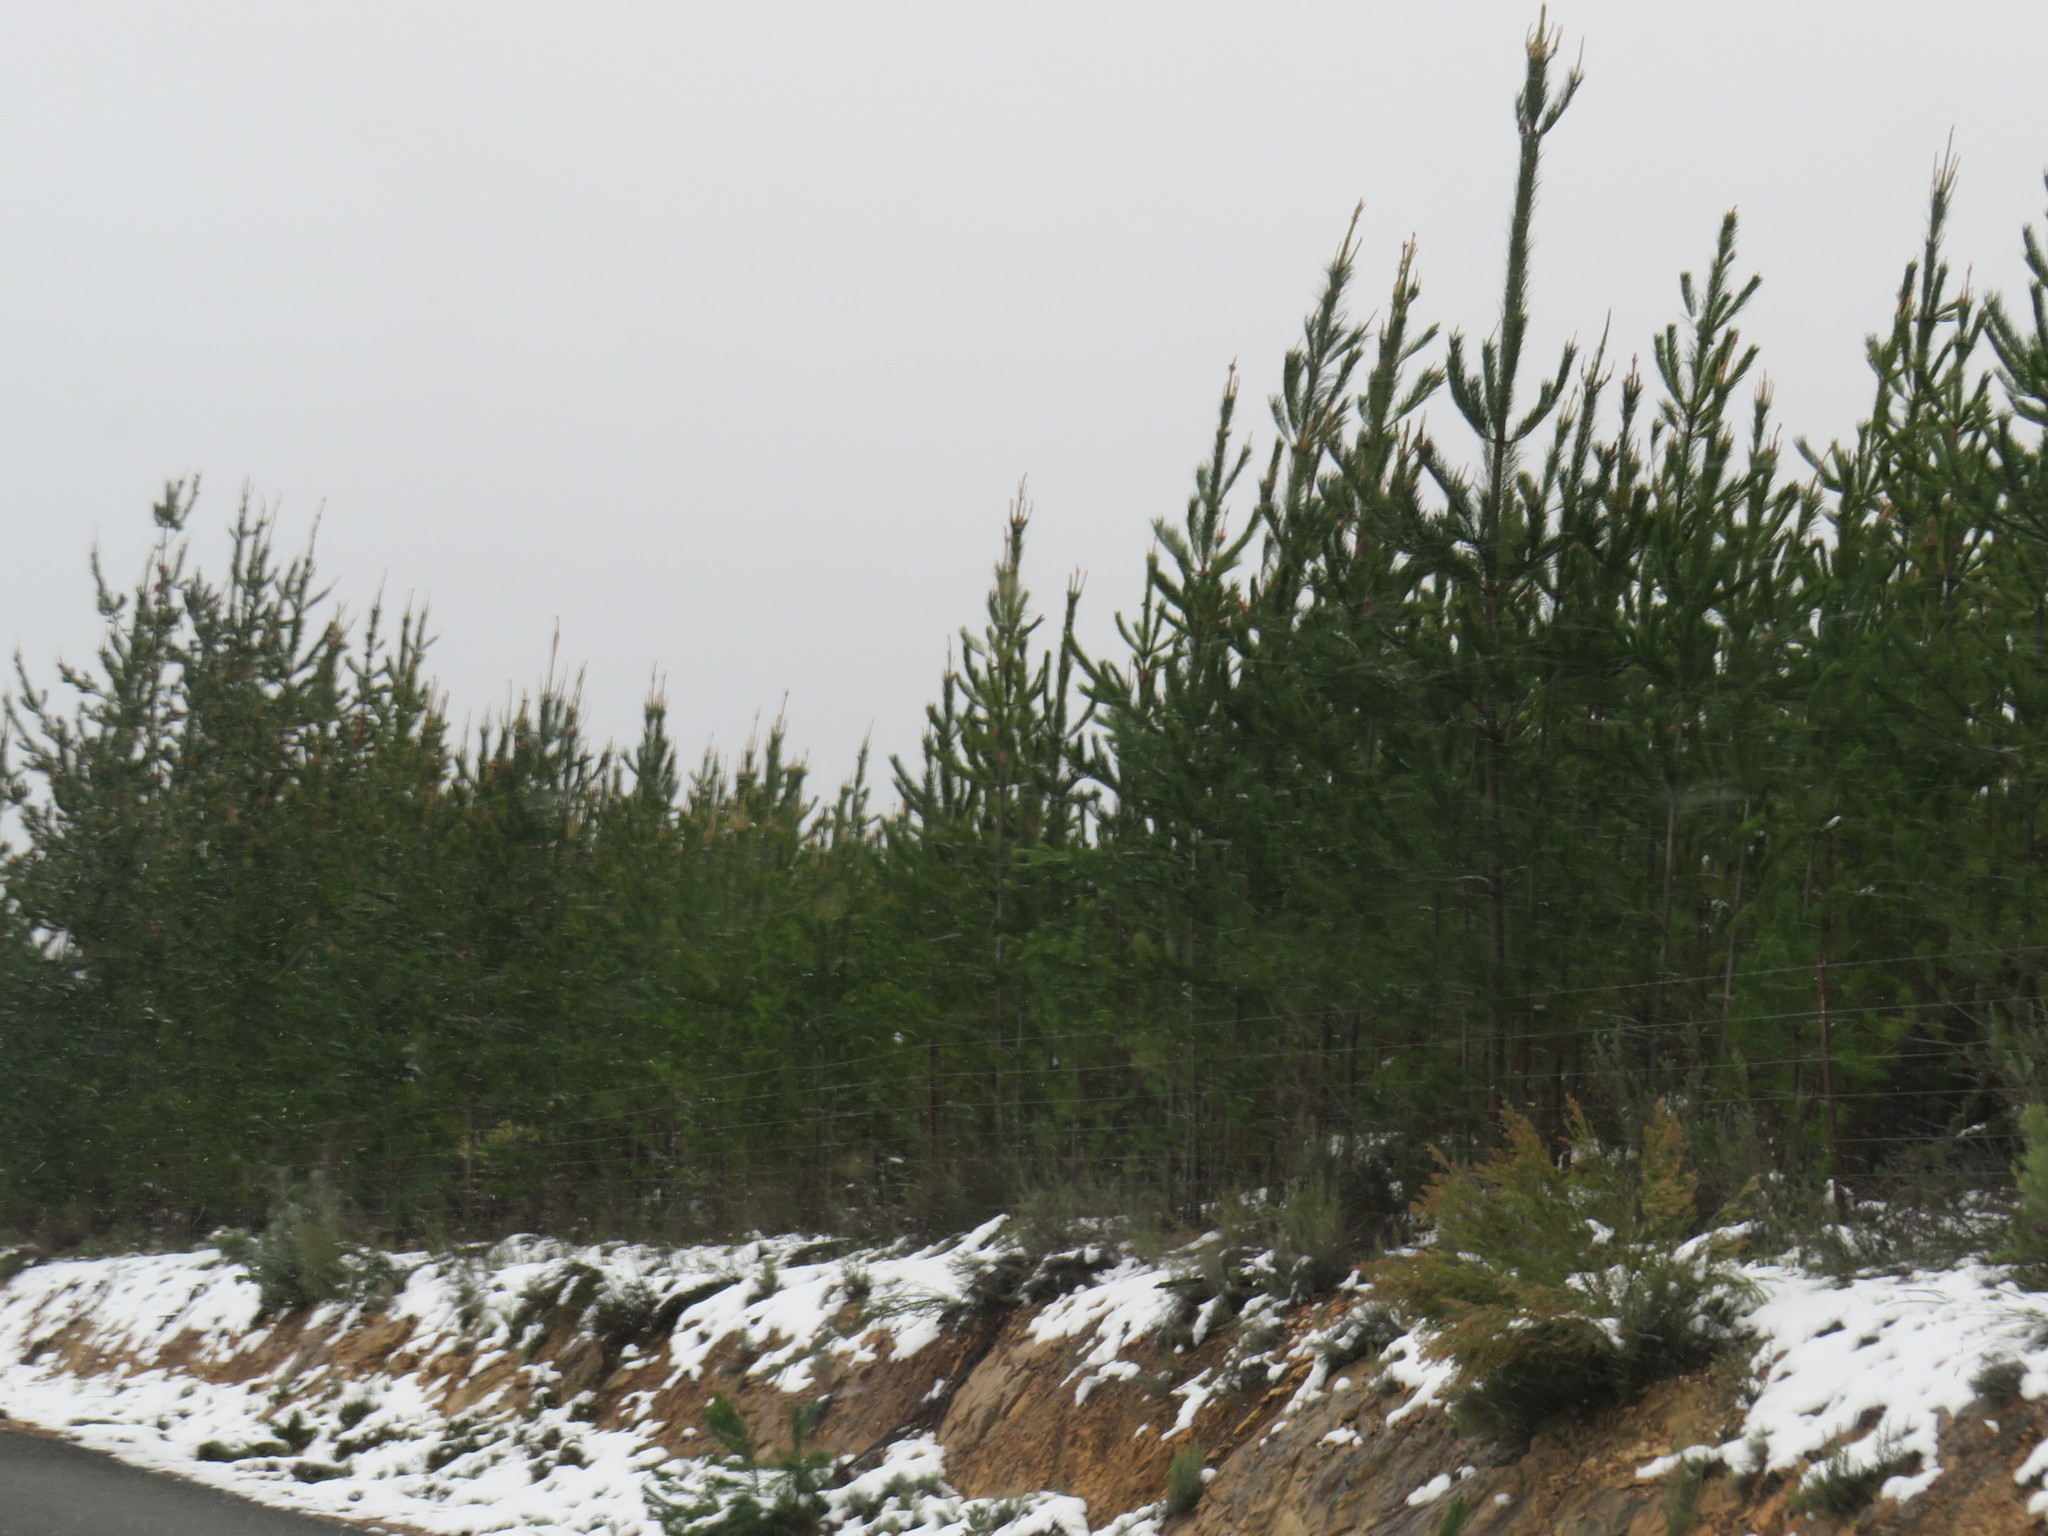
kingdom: Plantae
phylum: Tracheophyta
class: Pinopsida
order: Pinales
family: Pinaceae
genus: Pinus
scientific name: Pinus halepensis
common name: Aleppo pine
